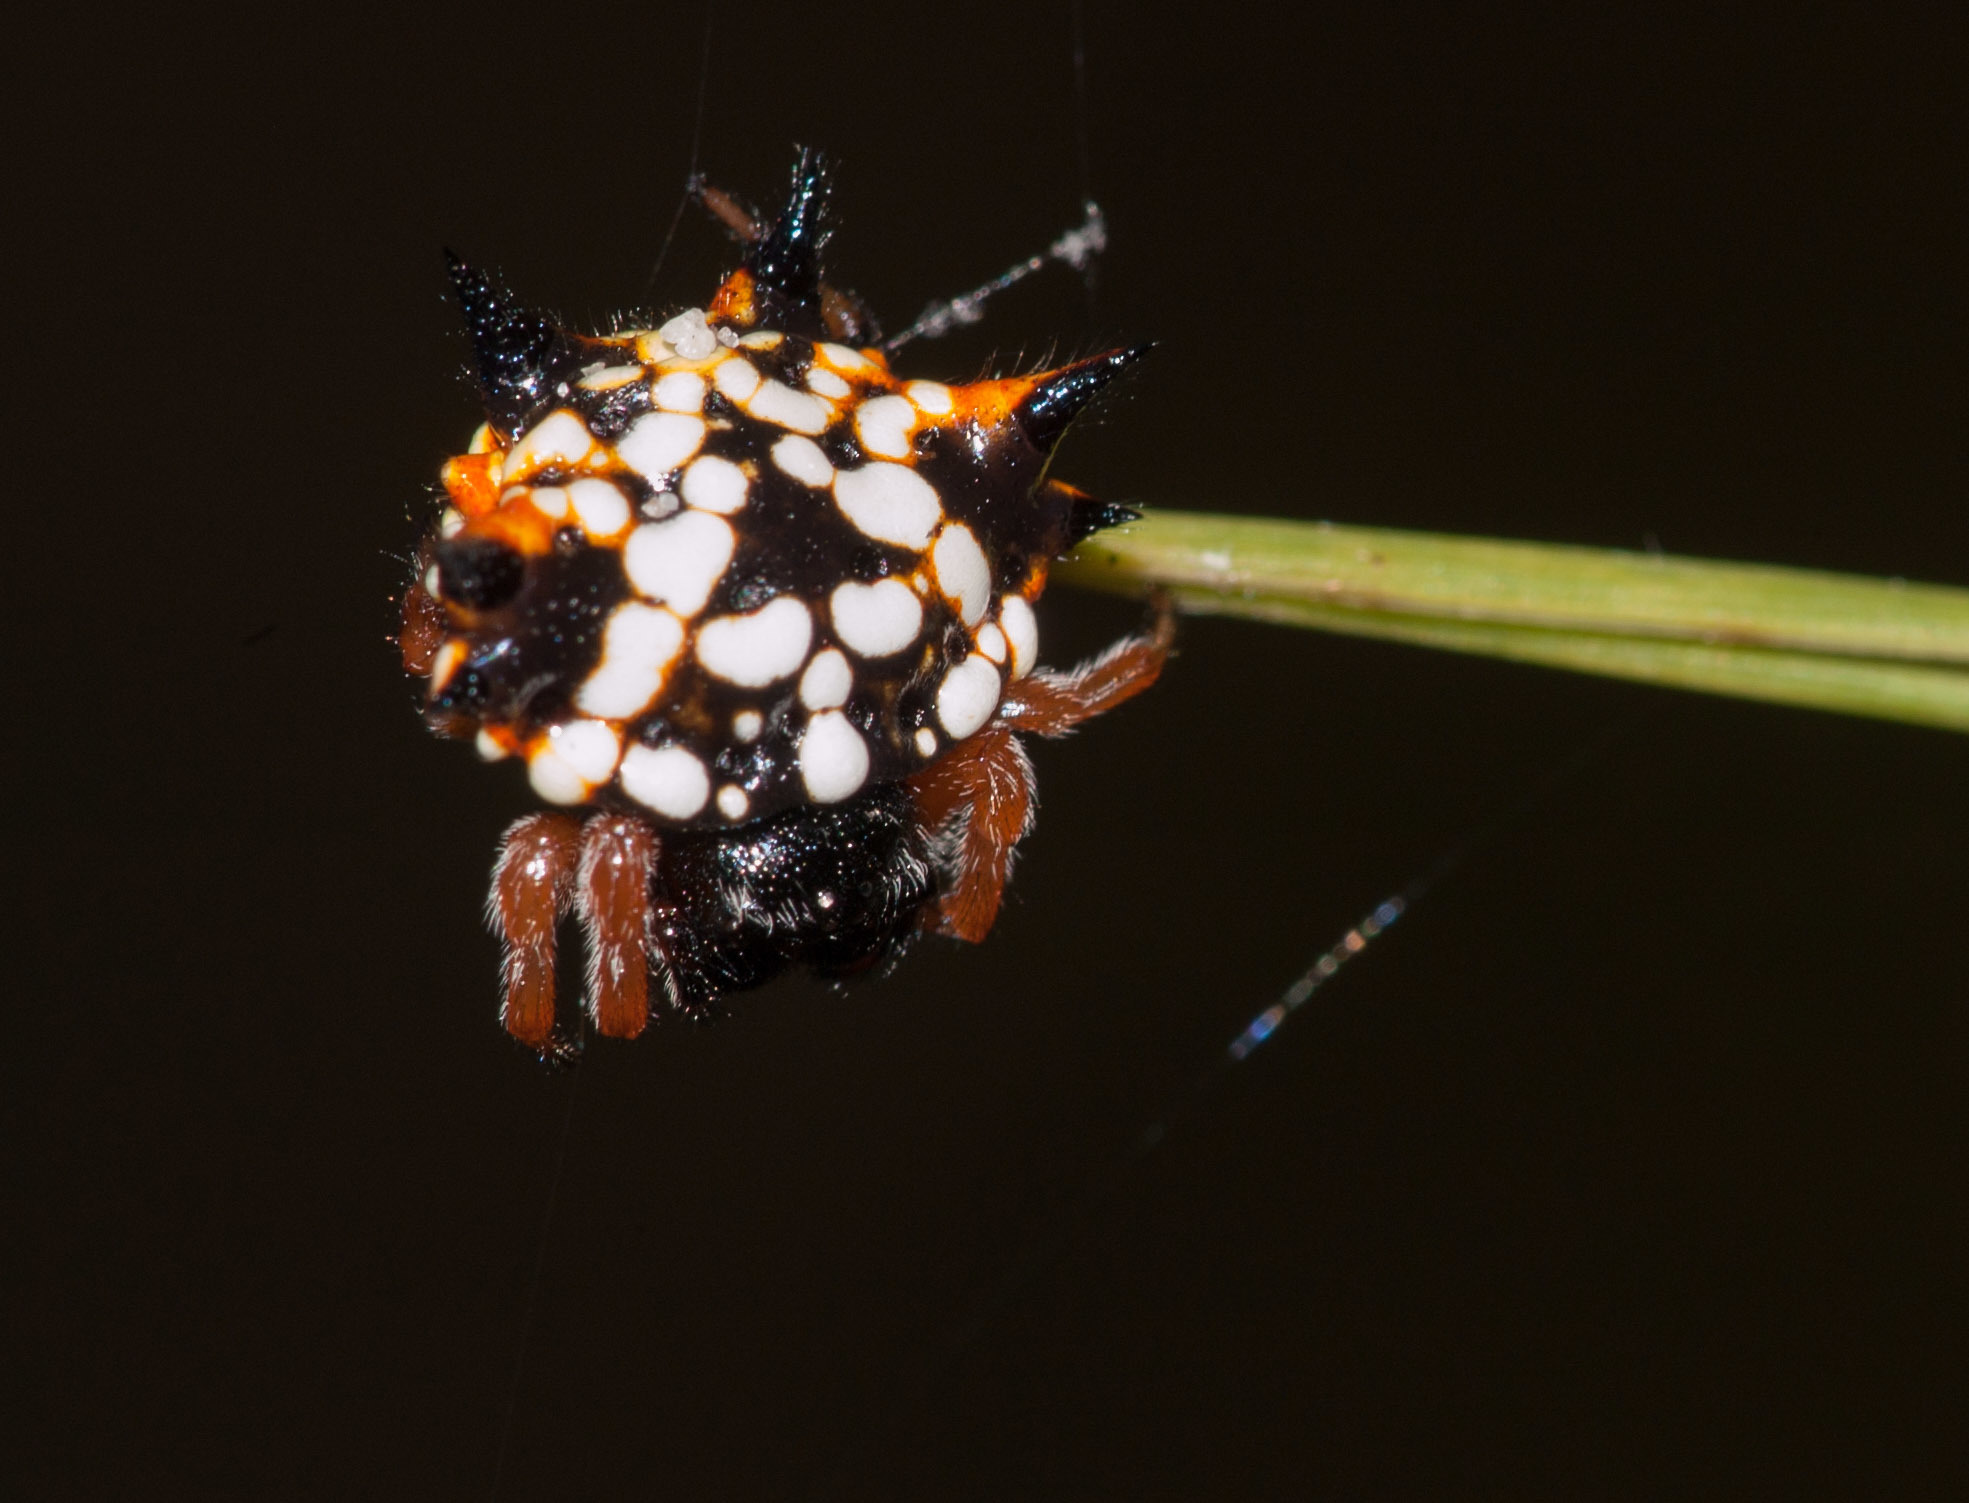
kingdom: Animalia
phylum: Arthropoda
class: Arachnida
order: Araneae
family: Araneidae
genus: Austracantha
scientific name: Austracantha minax
